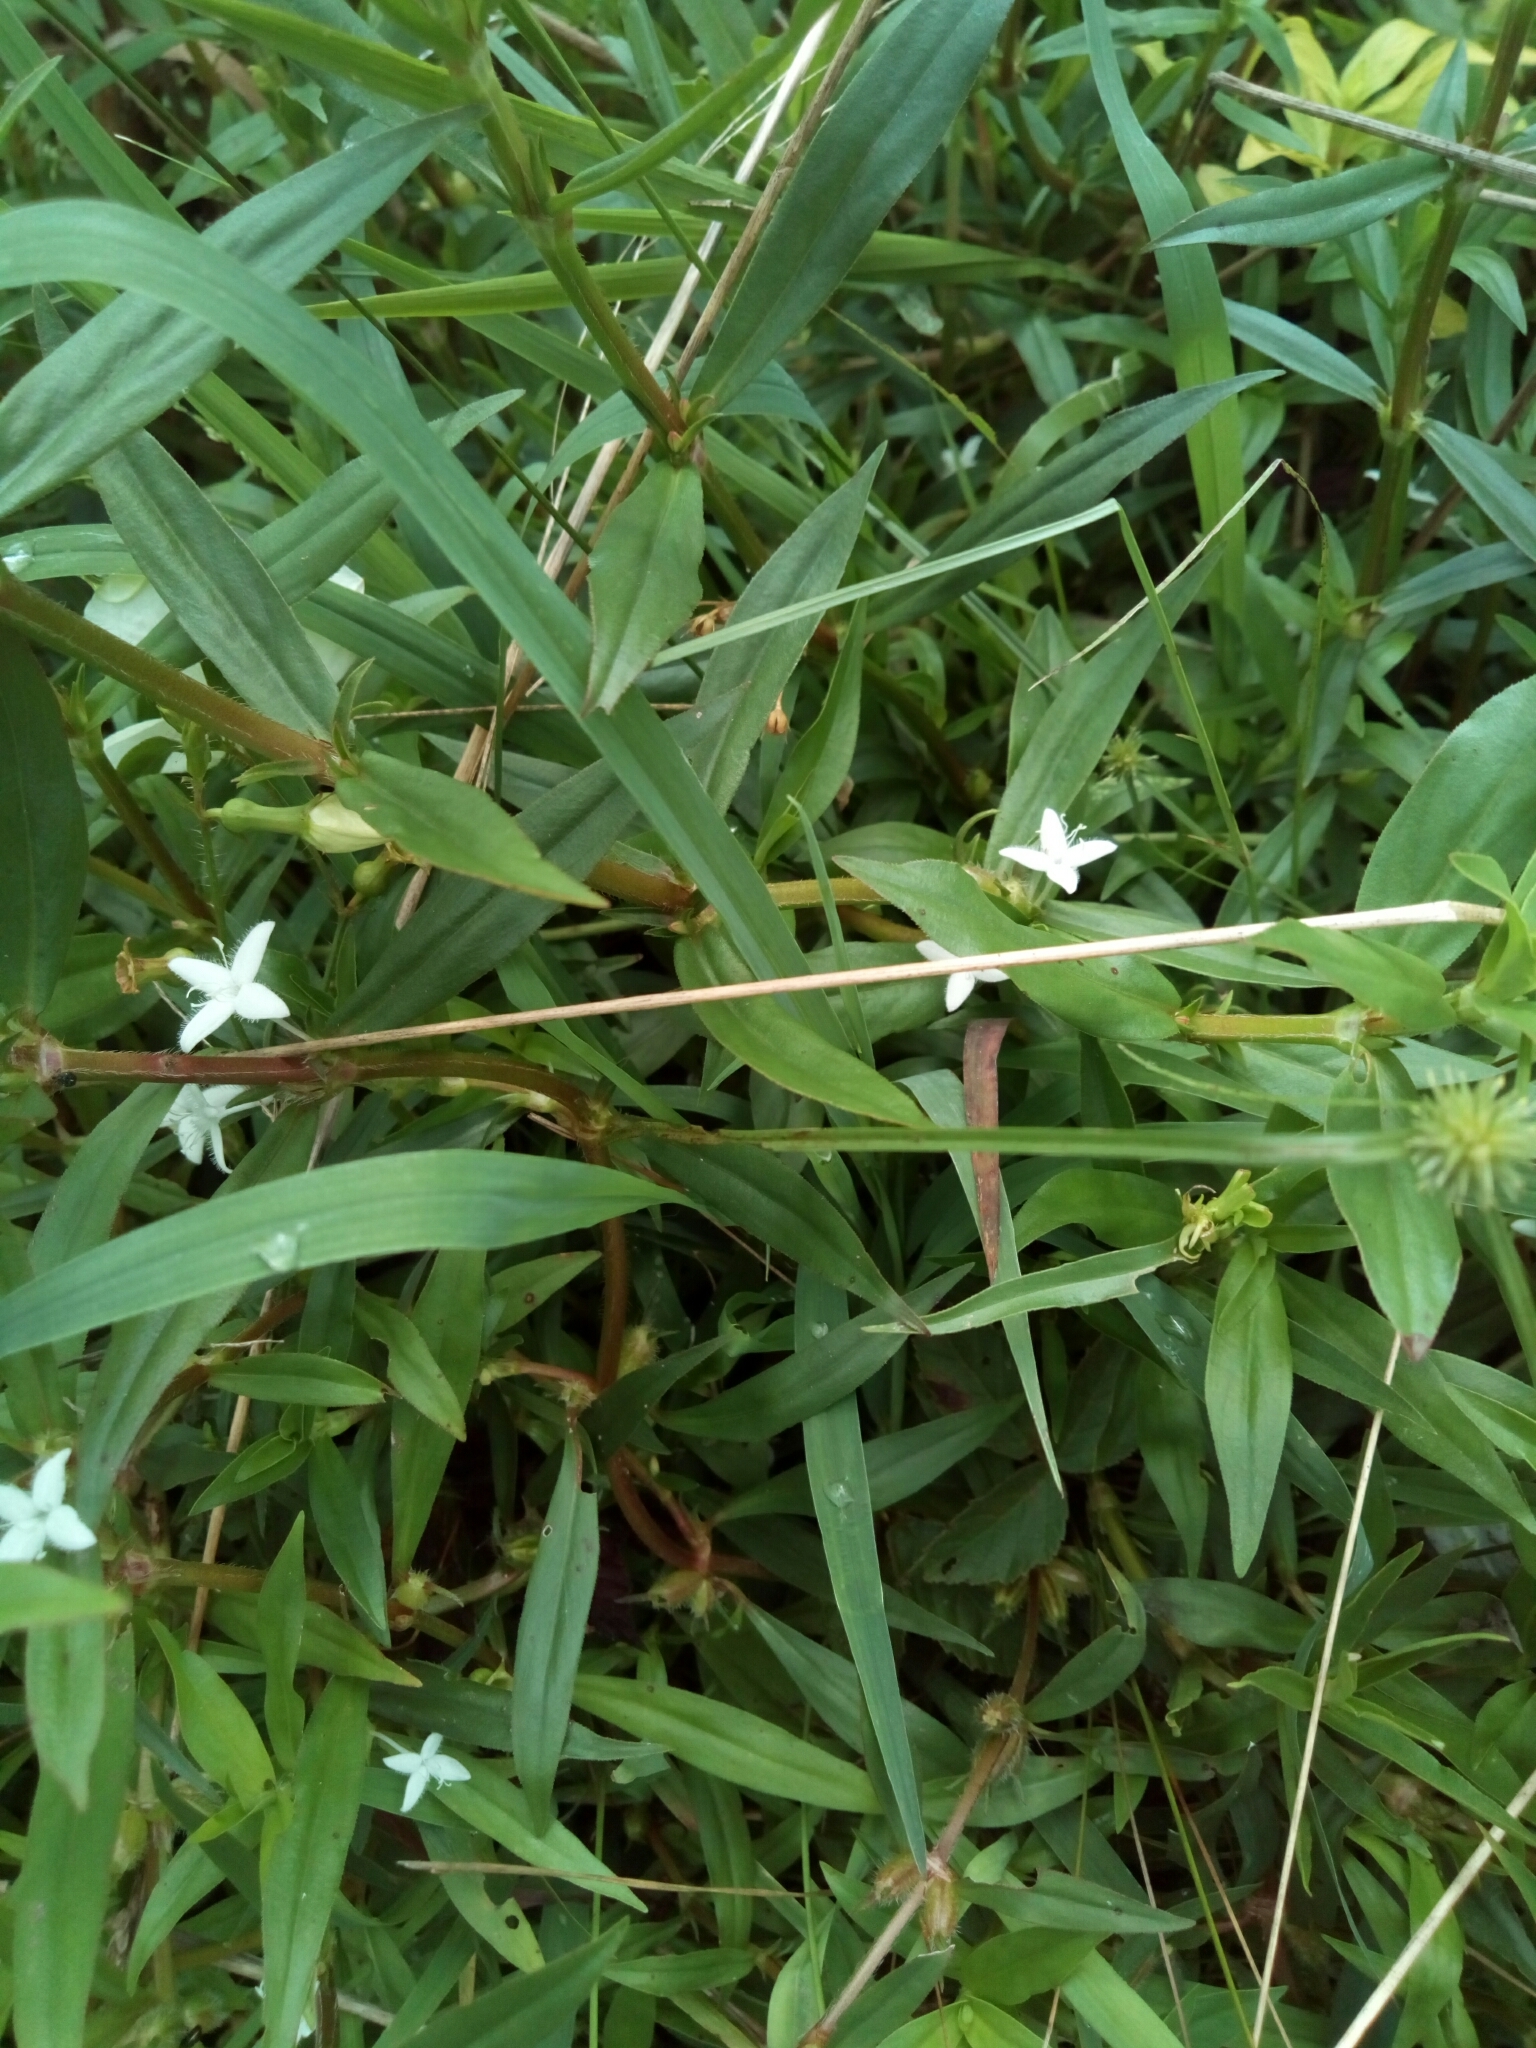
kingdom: Plantae
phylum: Tracheophyta
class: Magnoliopsida
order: Gentianales
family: Rubiaceae
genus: Diodia
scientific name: Diodia virginiana
